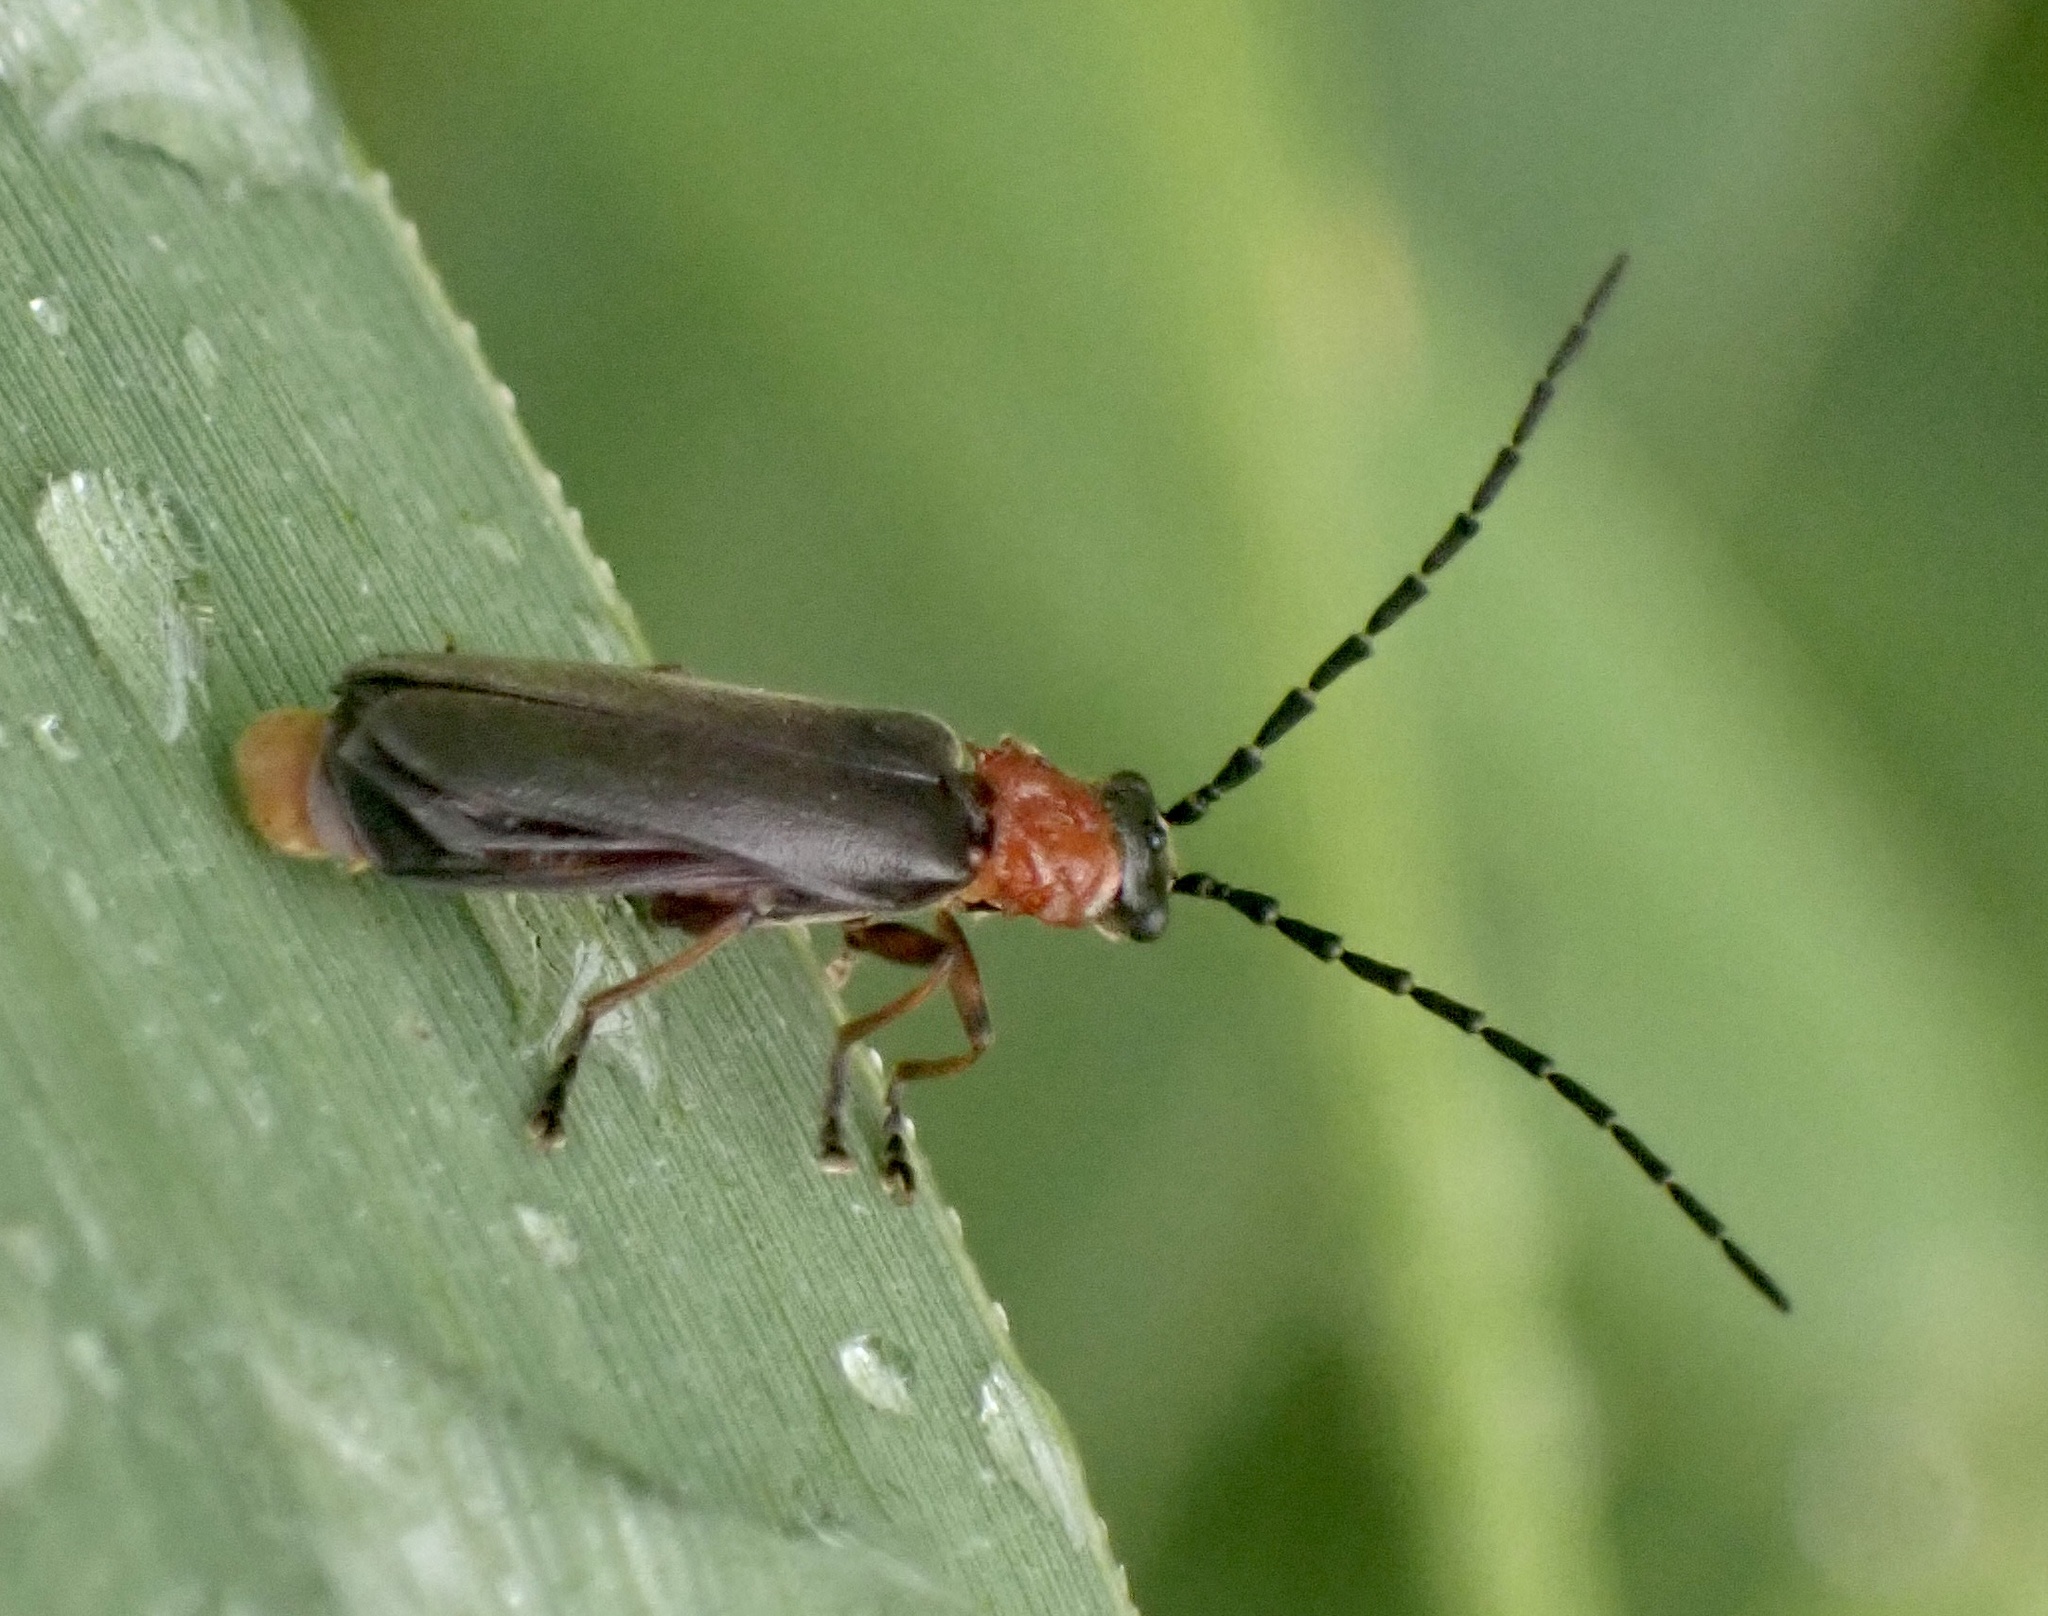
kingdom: Animalia
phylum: Arthropoda
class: Insecta
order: Coleoptera
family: Cantharidae
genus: Crudosilis
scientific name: Crudosilis ruficollis
